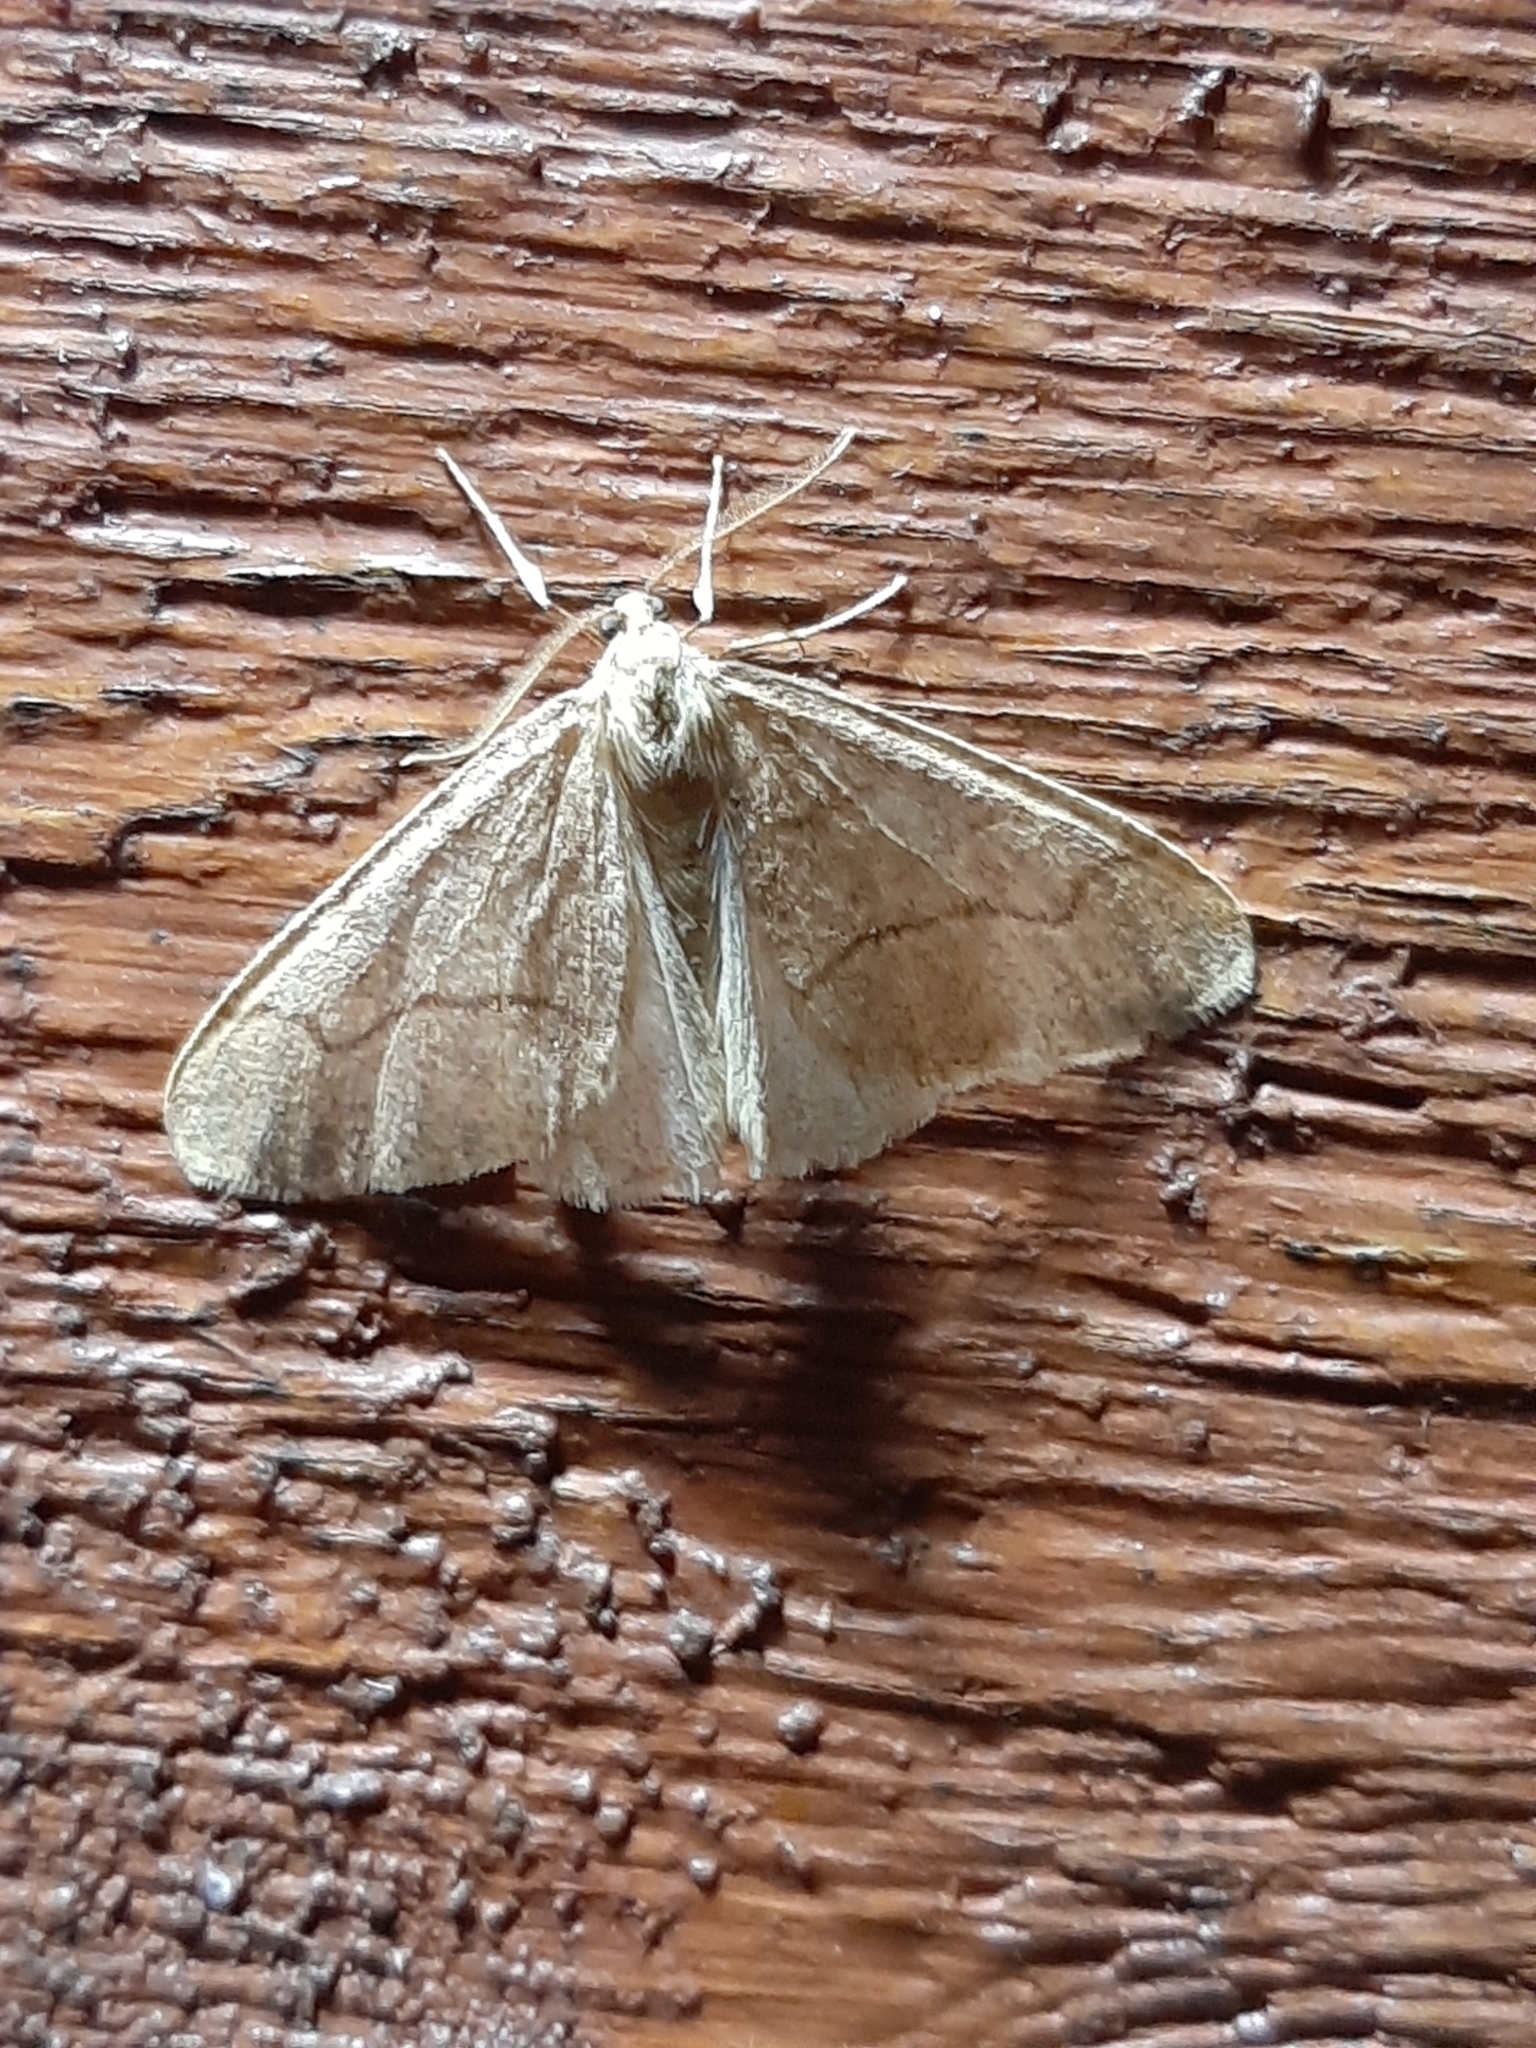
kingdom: Animalia
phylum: Arthropoda
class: Insecta
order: Lepidoptera
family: Geometridae
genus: Erannis
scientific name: Erannis tiliaria
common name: Linden looper
